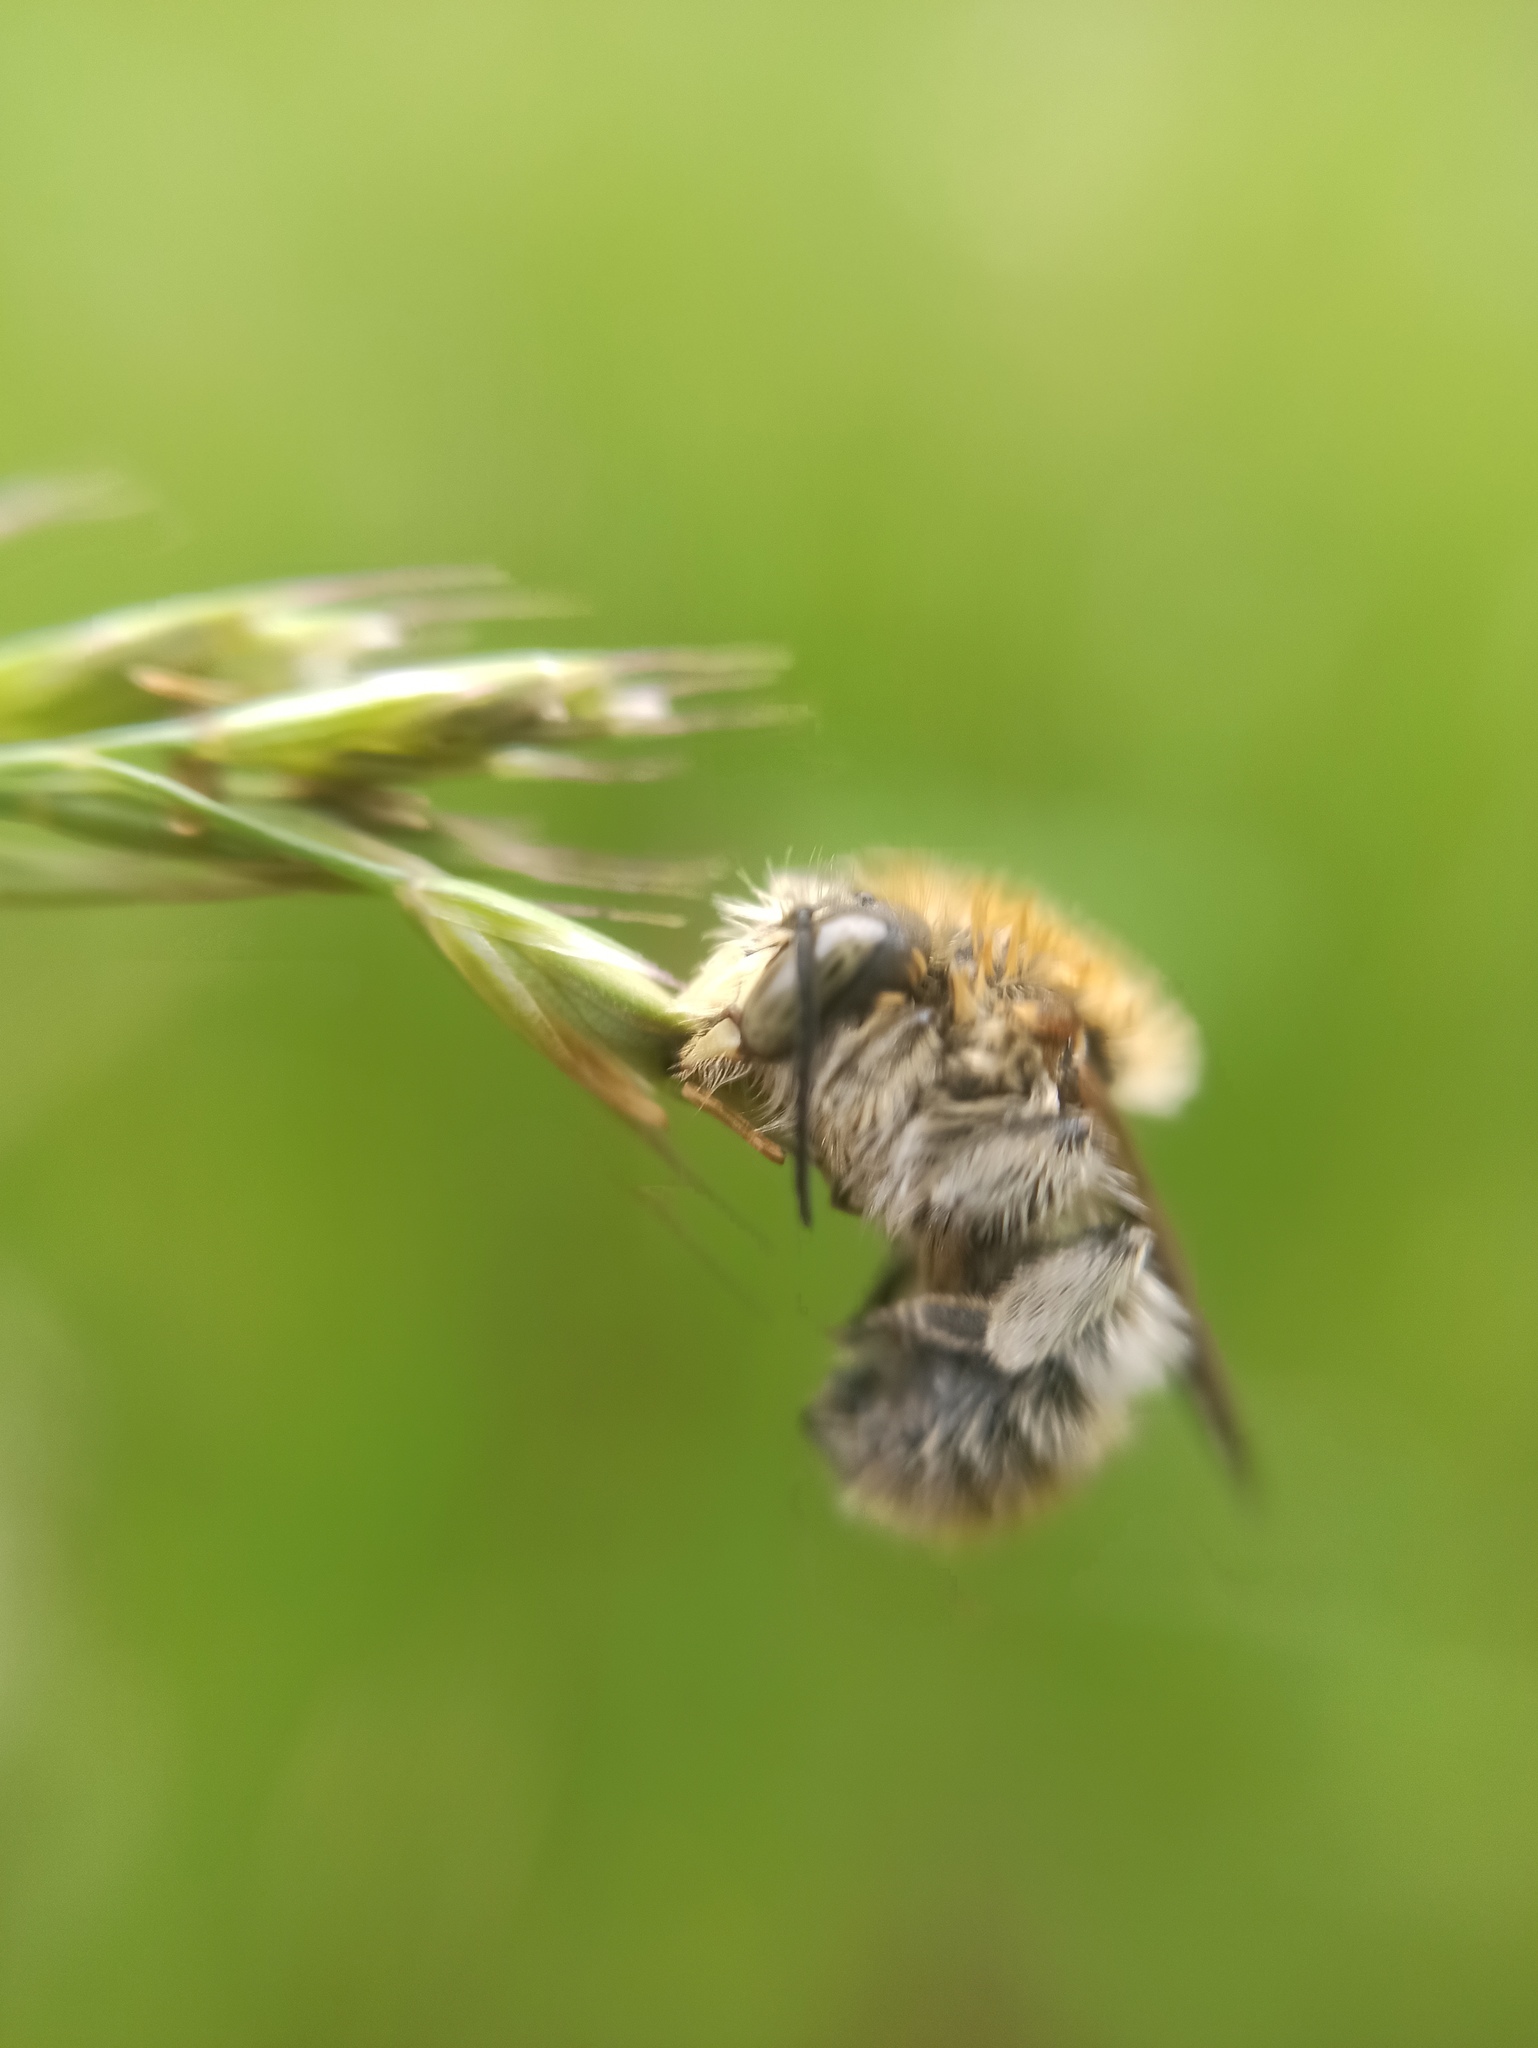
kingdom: Animalia
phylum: Arthropoda
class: Insecta
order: Hymenoptera
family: Megachilidae
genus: Trachusa
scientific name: Trachusa byssina
